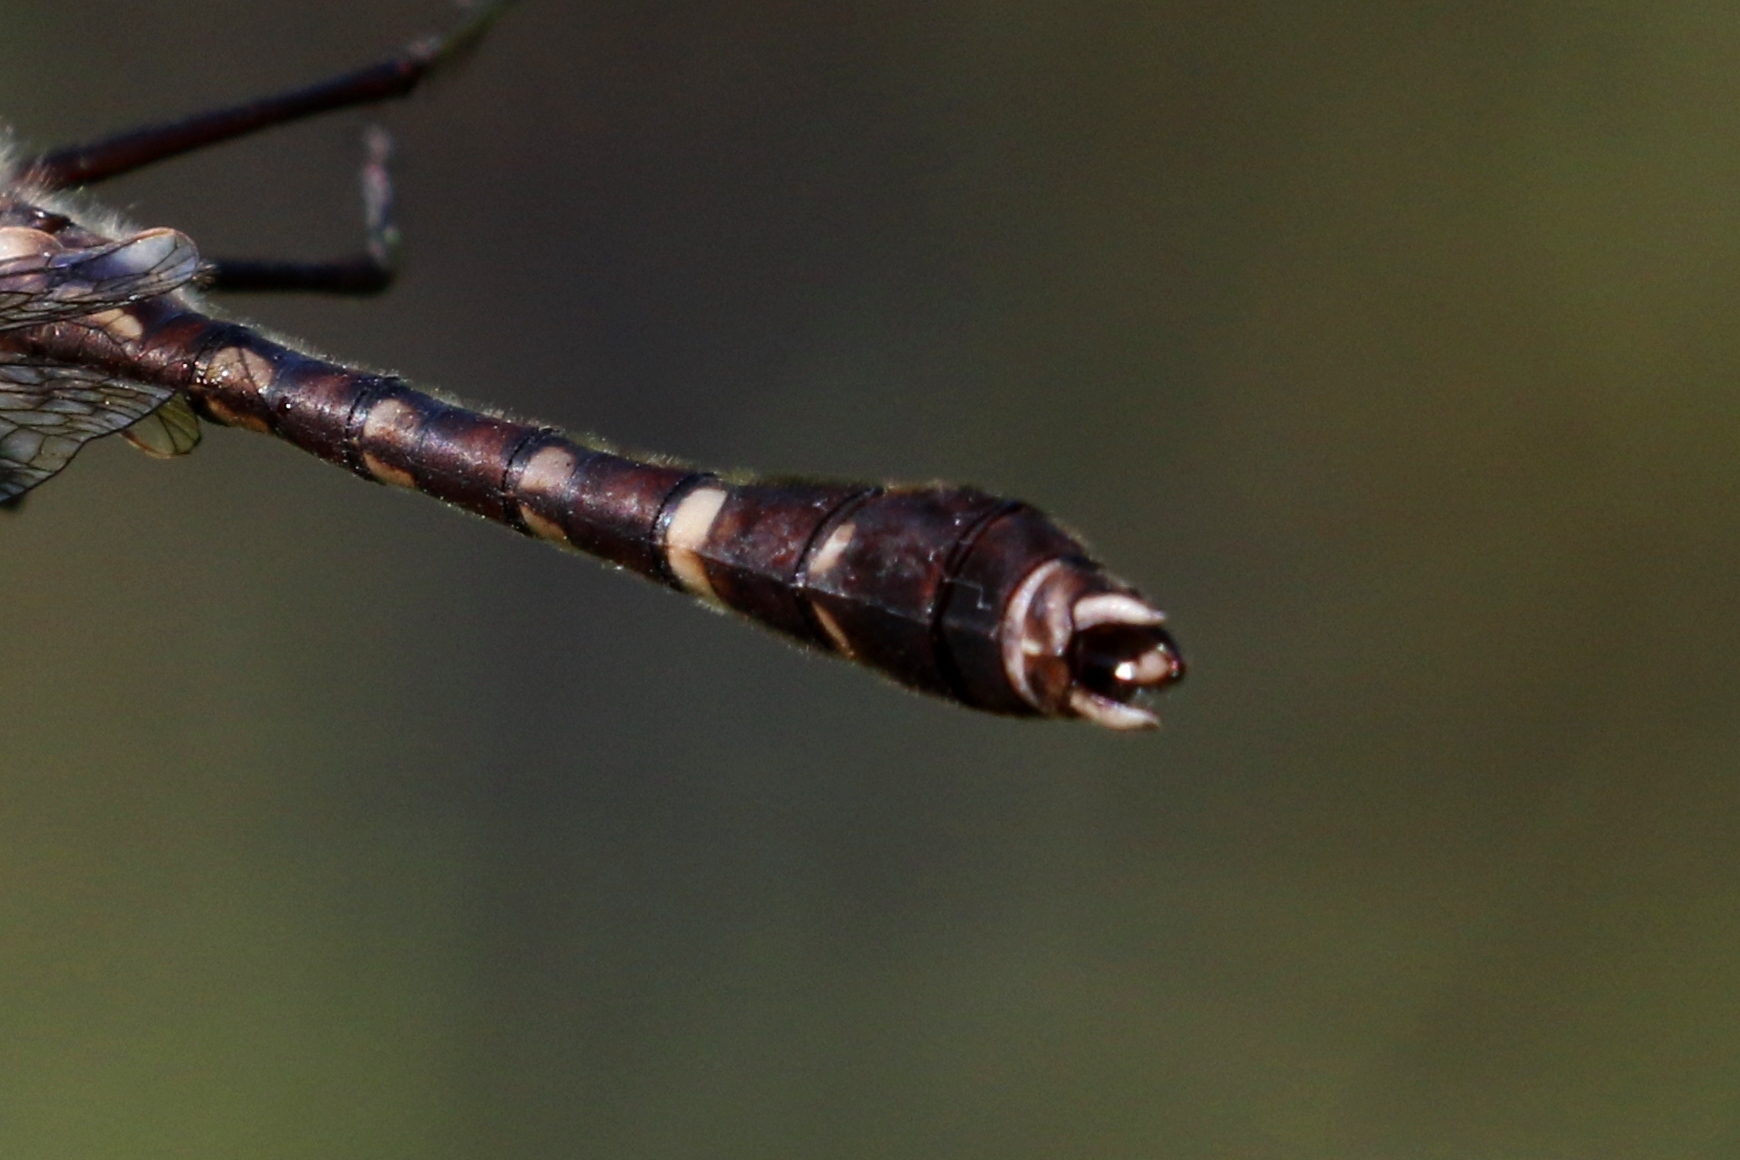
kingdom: Animalia
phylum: Arthropoda
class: Insecta
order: Odonata
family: Macromiidae
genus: Didymops
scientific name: Didymops transversa
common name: Stream cruiser
